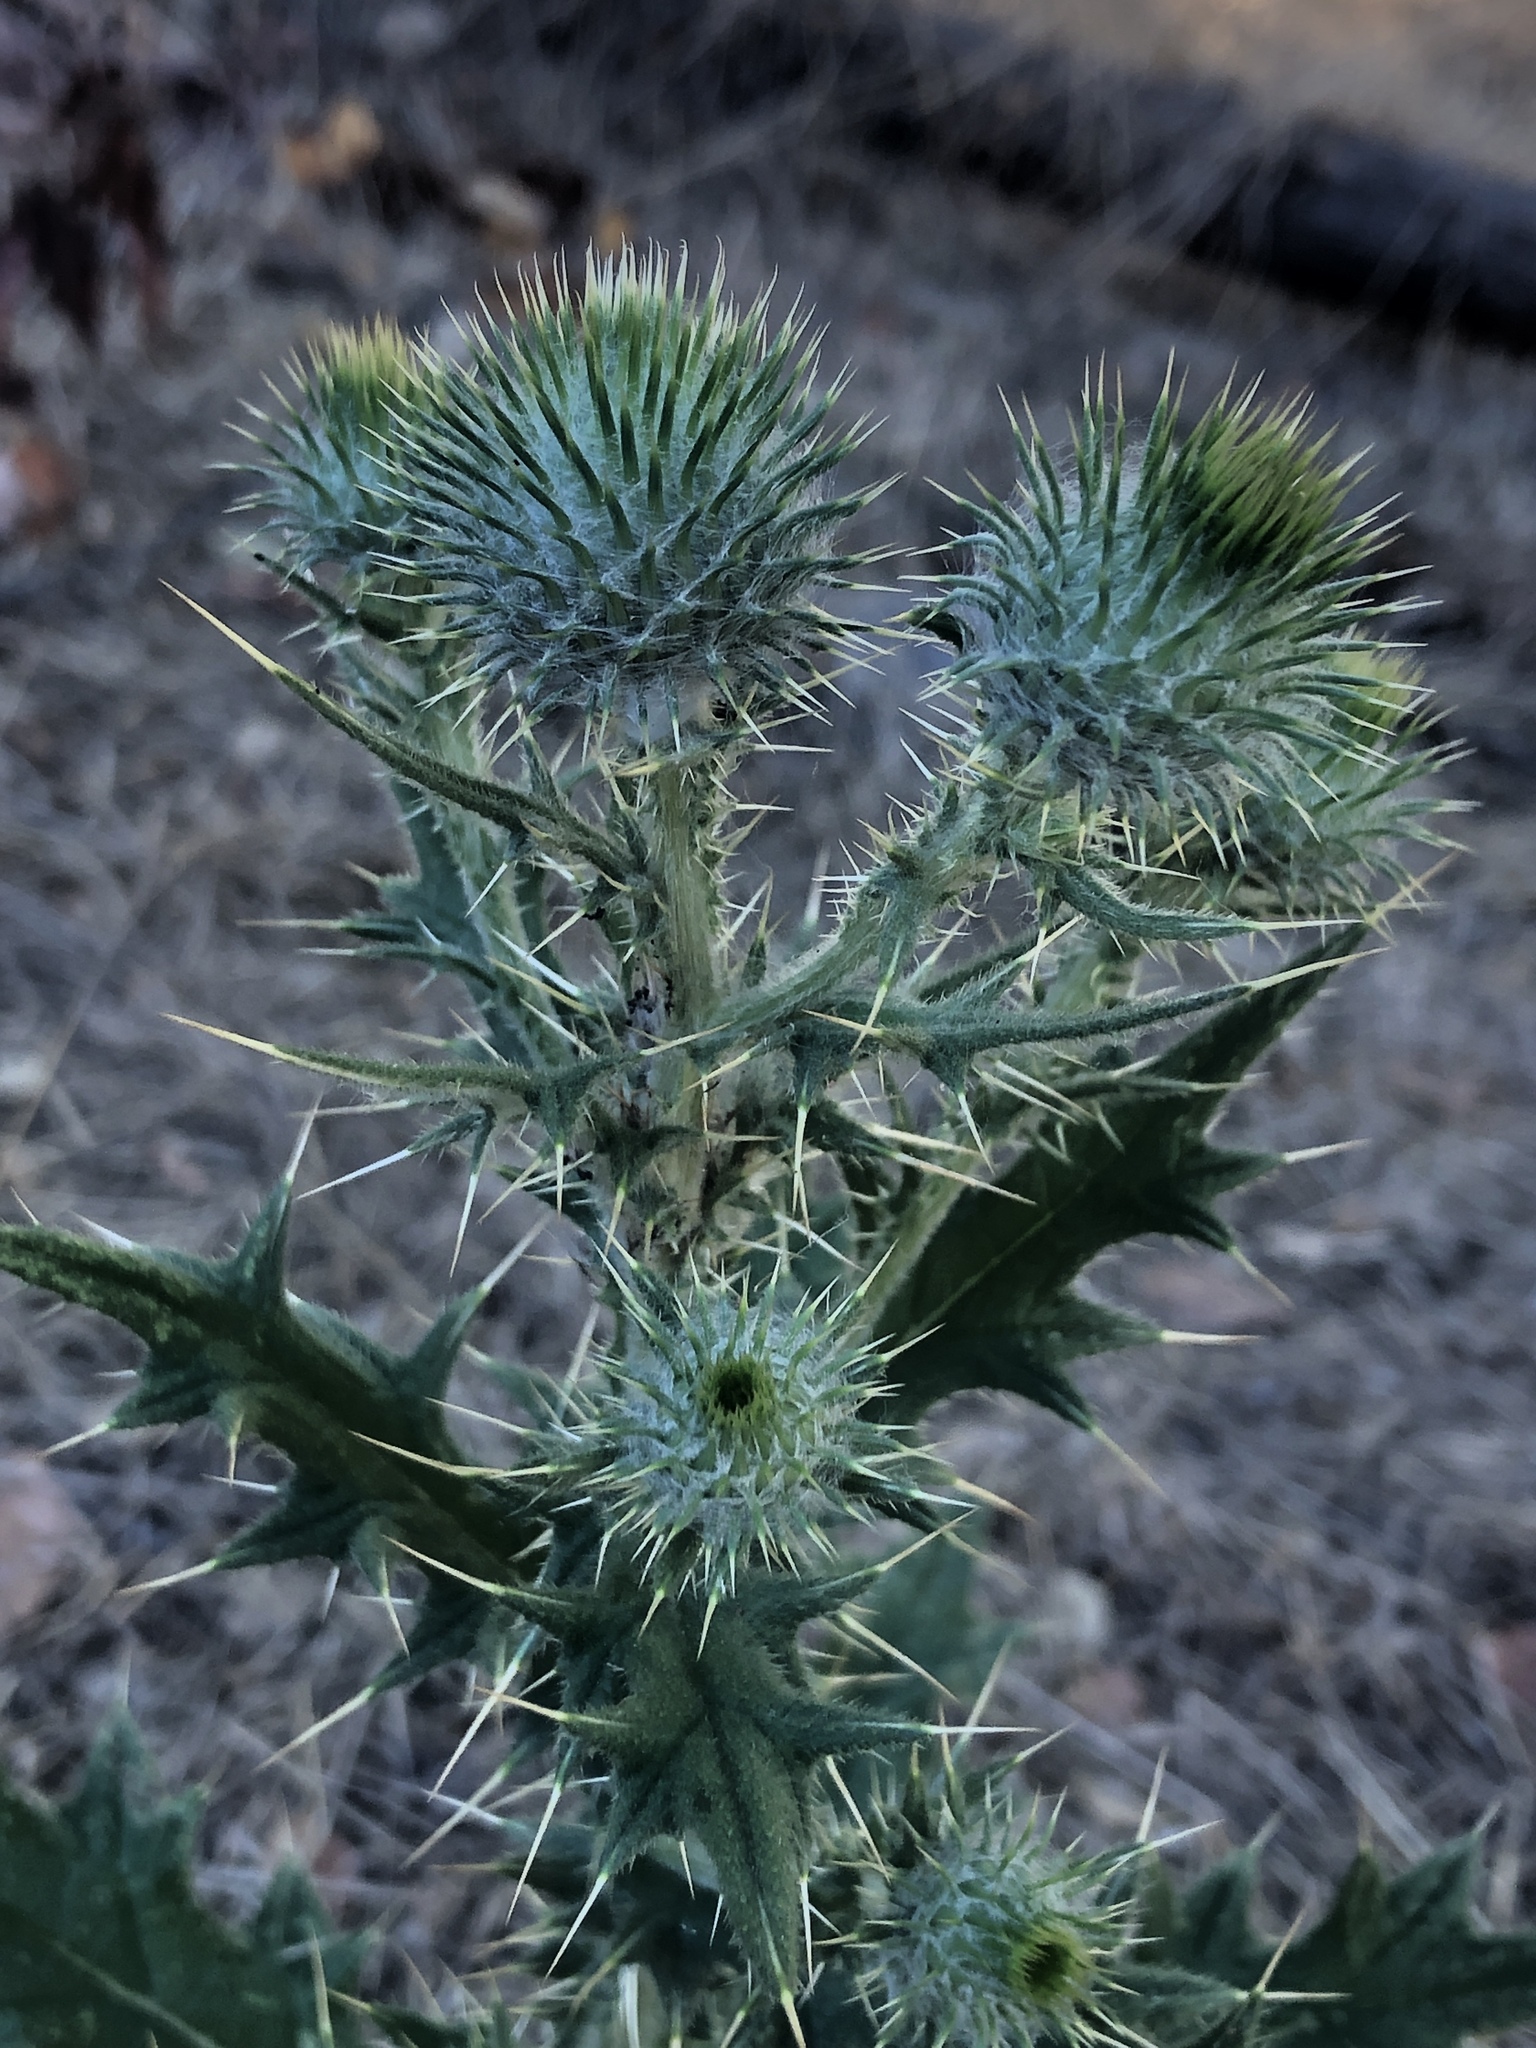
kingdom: Plantae
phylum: Tracheophyta
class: Magnoliopsida
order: Asterales
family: Asteraceae
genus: Cirsium
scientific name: Cirsium vulgare
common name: Bull thistle
